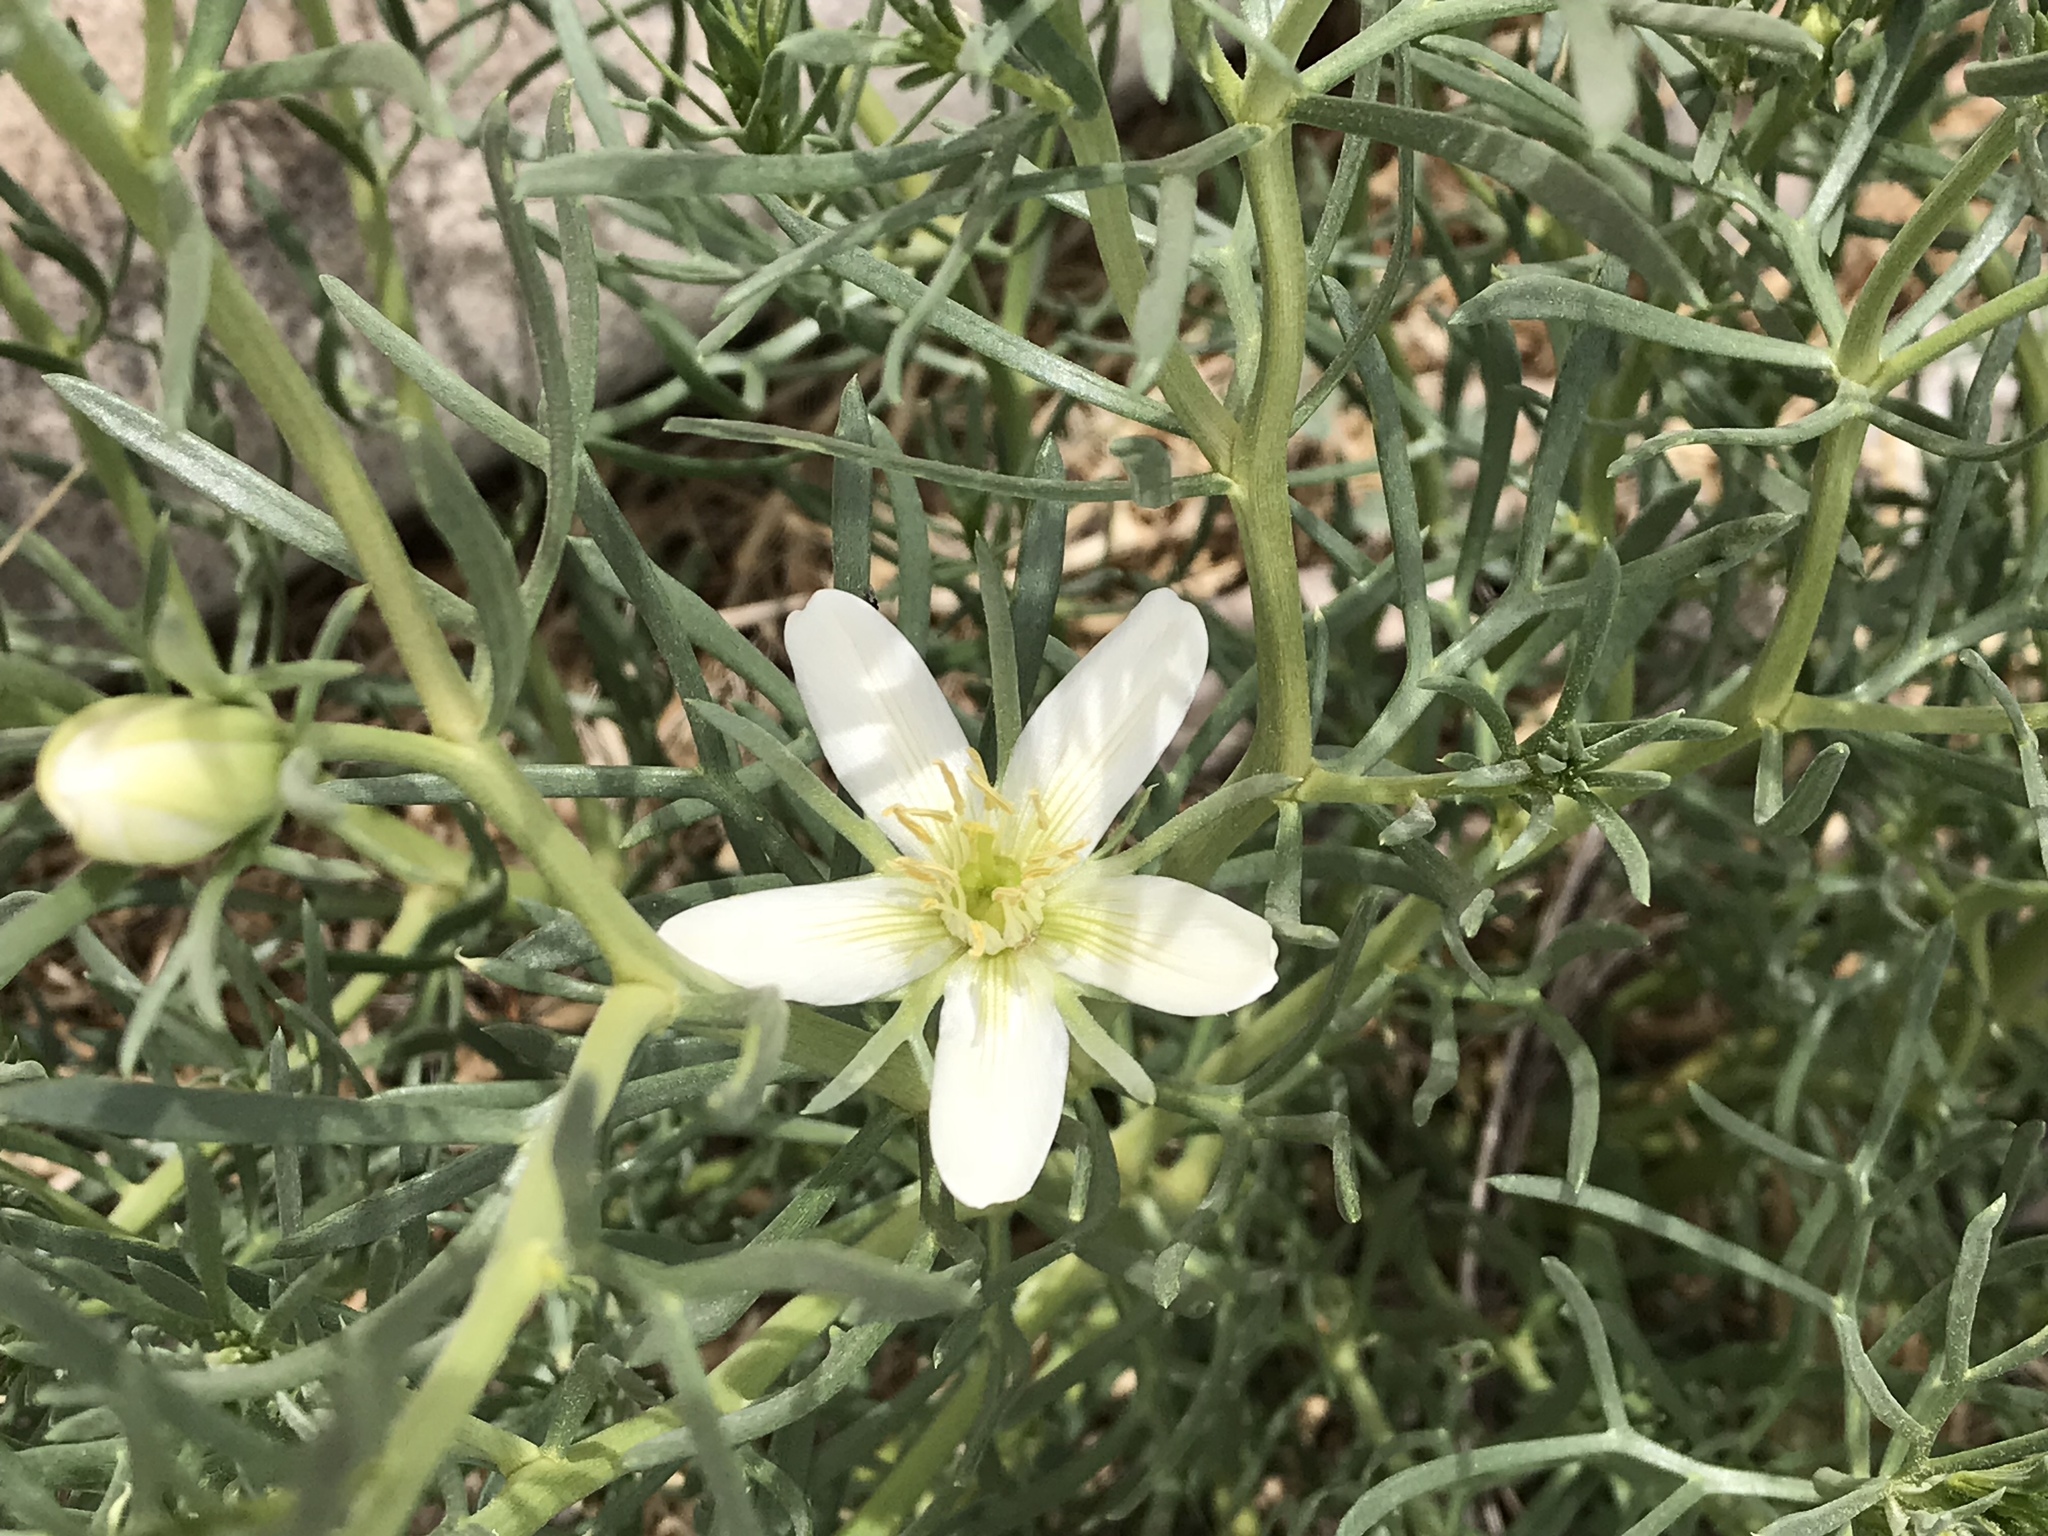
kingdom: Plantae
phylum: Tracheophyta
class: Magnoliopsida
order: Sapindales
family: Tetradiclidaceae
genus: Peganum
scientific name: Peganum harmala
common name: Harmal peganum
